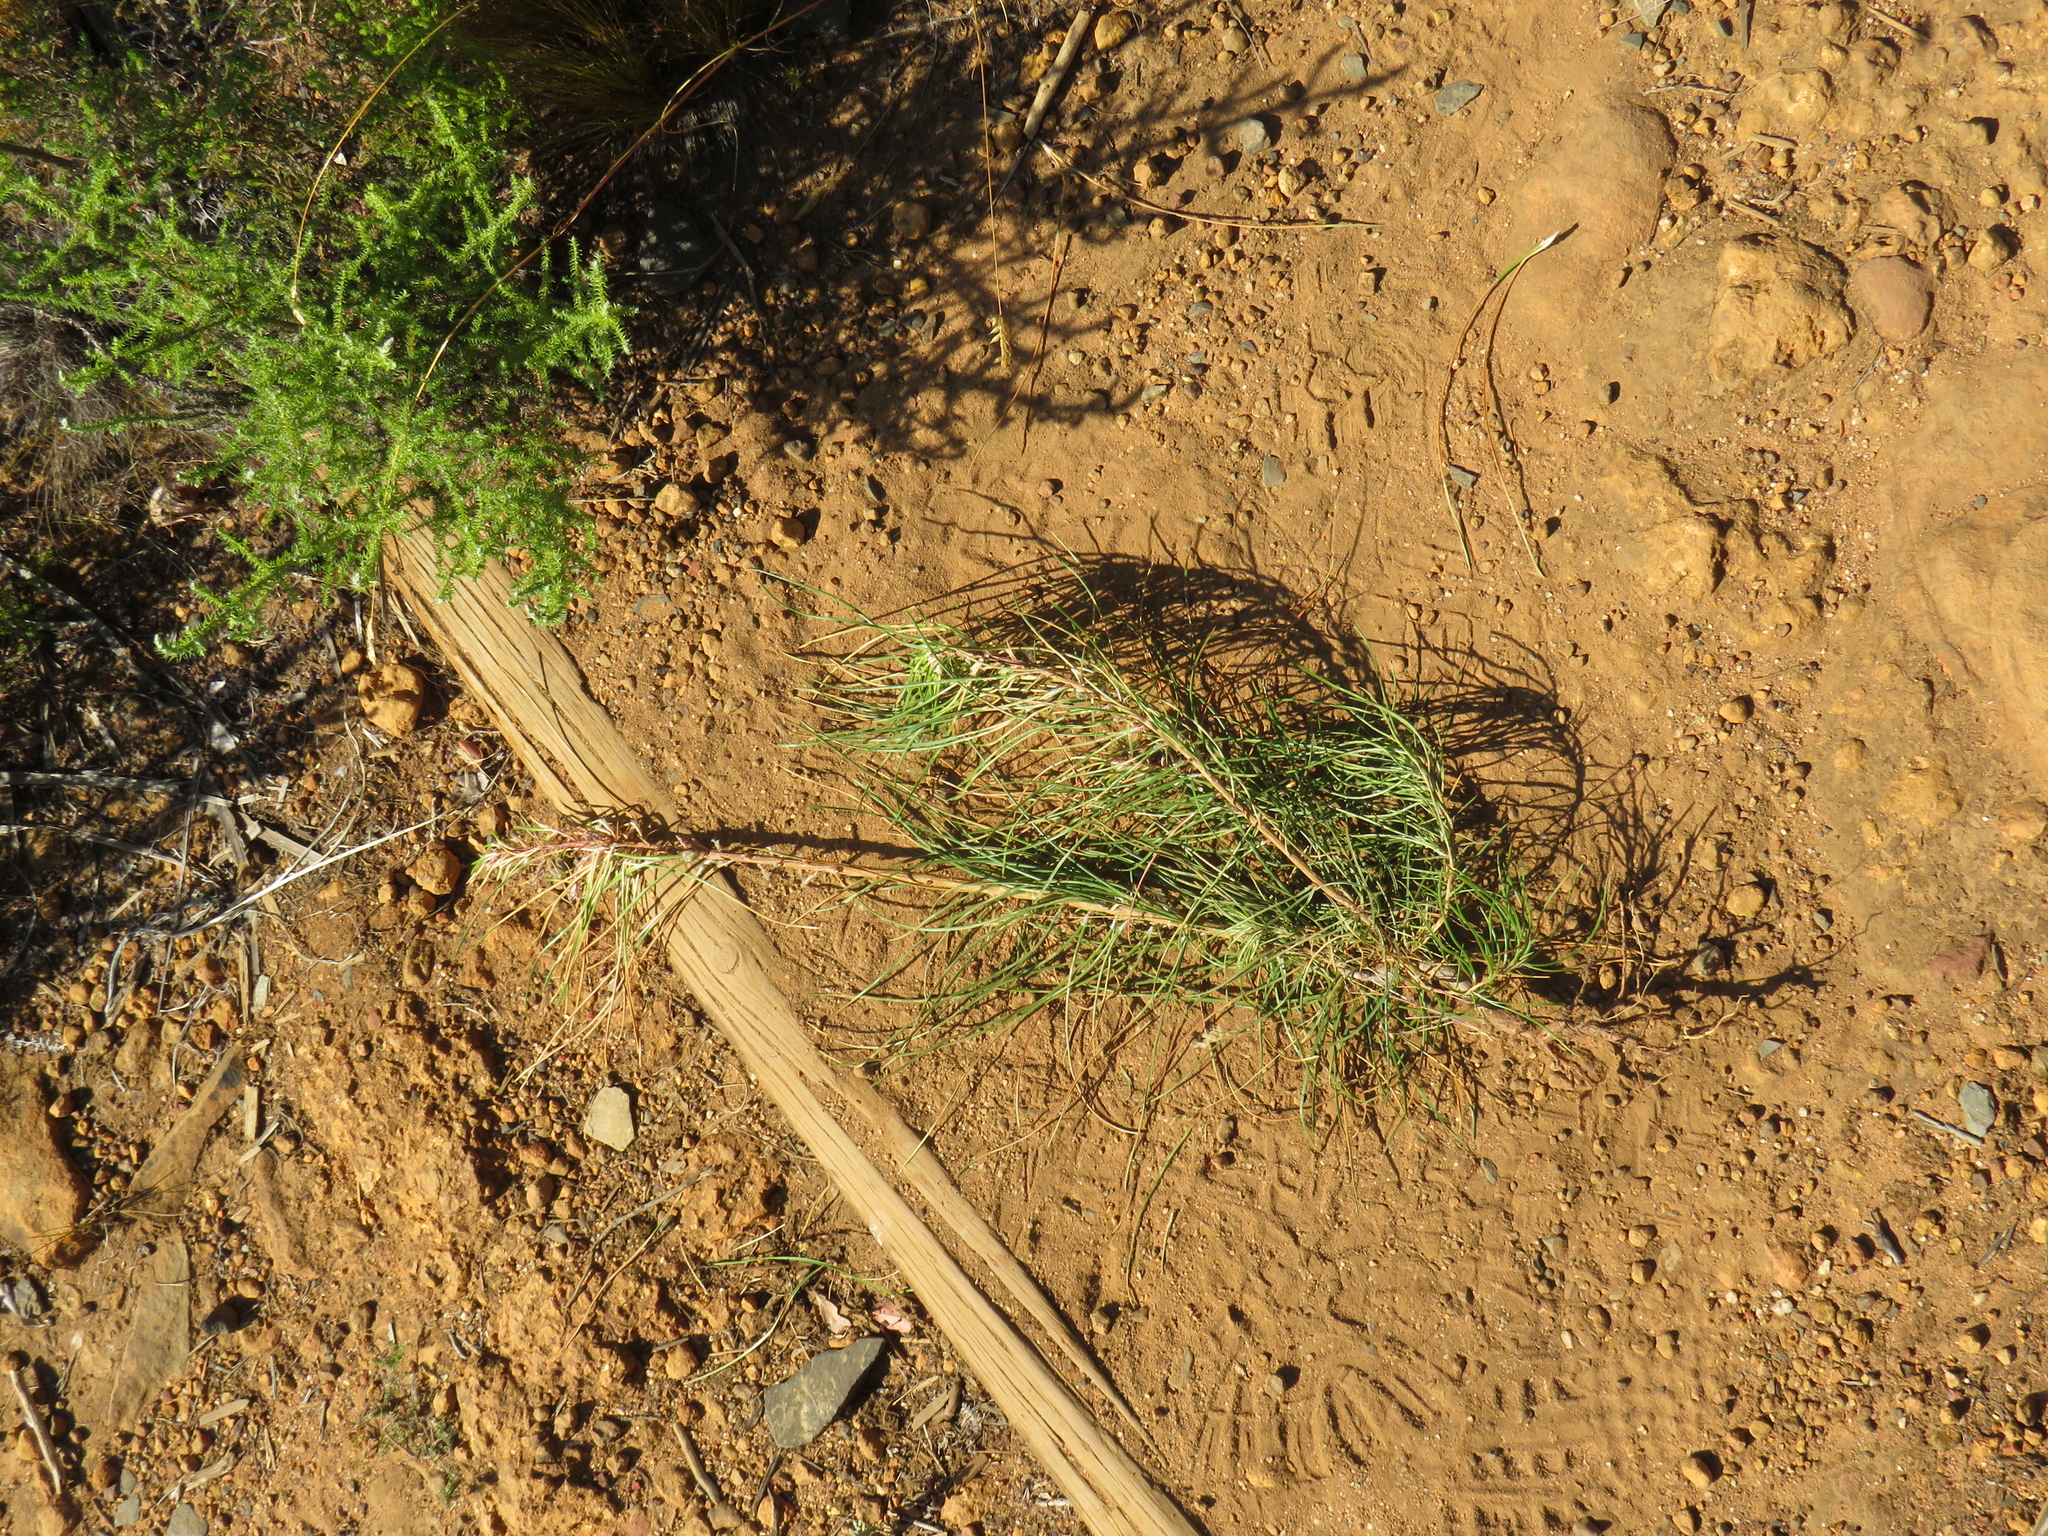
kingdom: Plantae
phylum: Tracheophyta
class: Pinopsida
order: Pinales
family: Pinaceae
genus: Pinus
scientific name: Pinus pinaster
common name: Maritime pine
